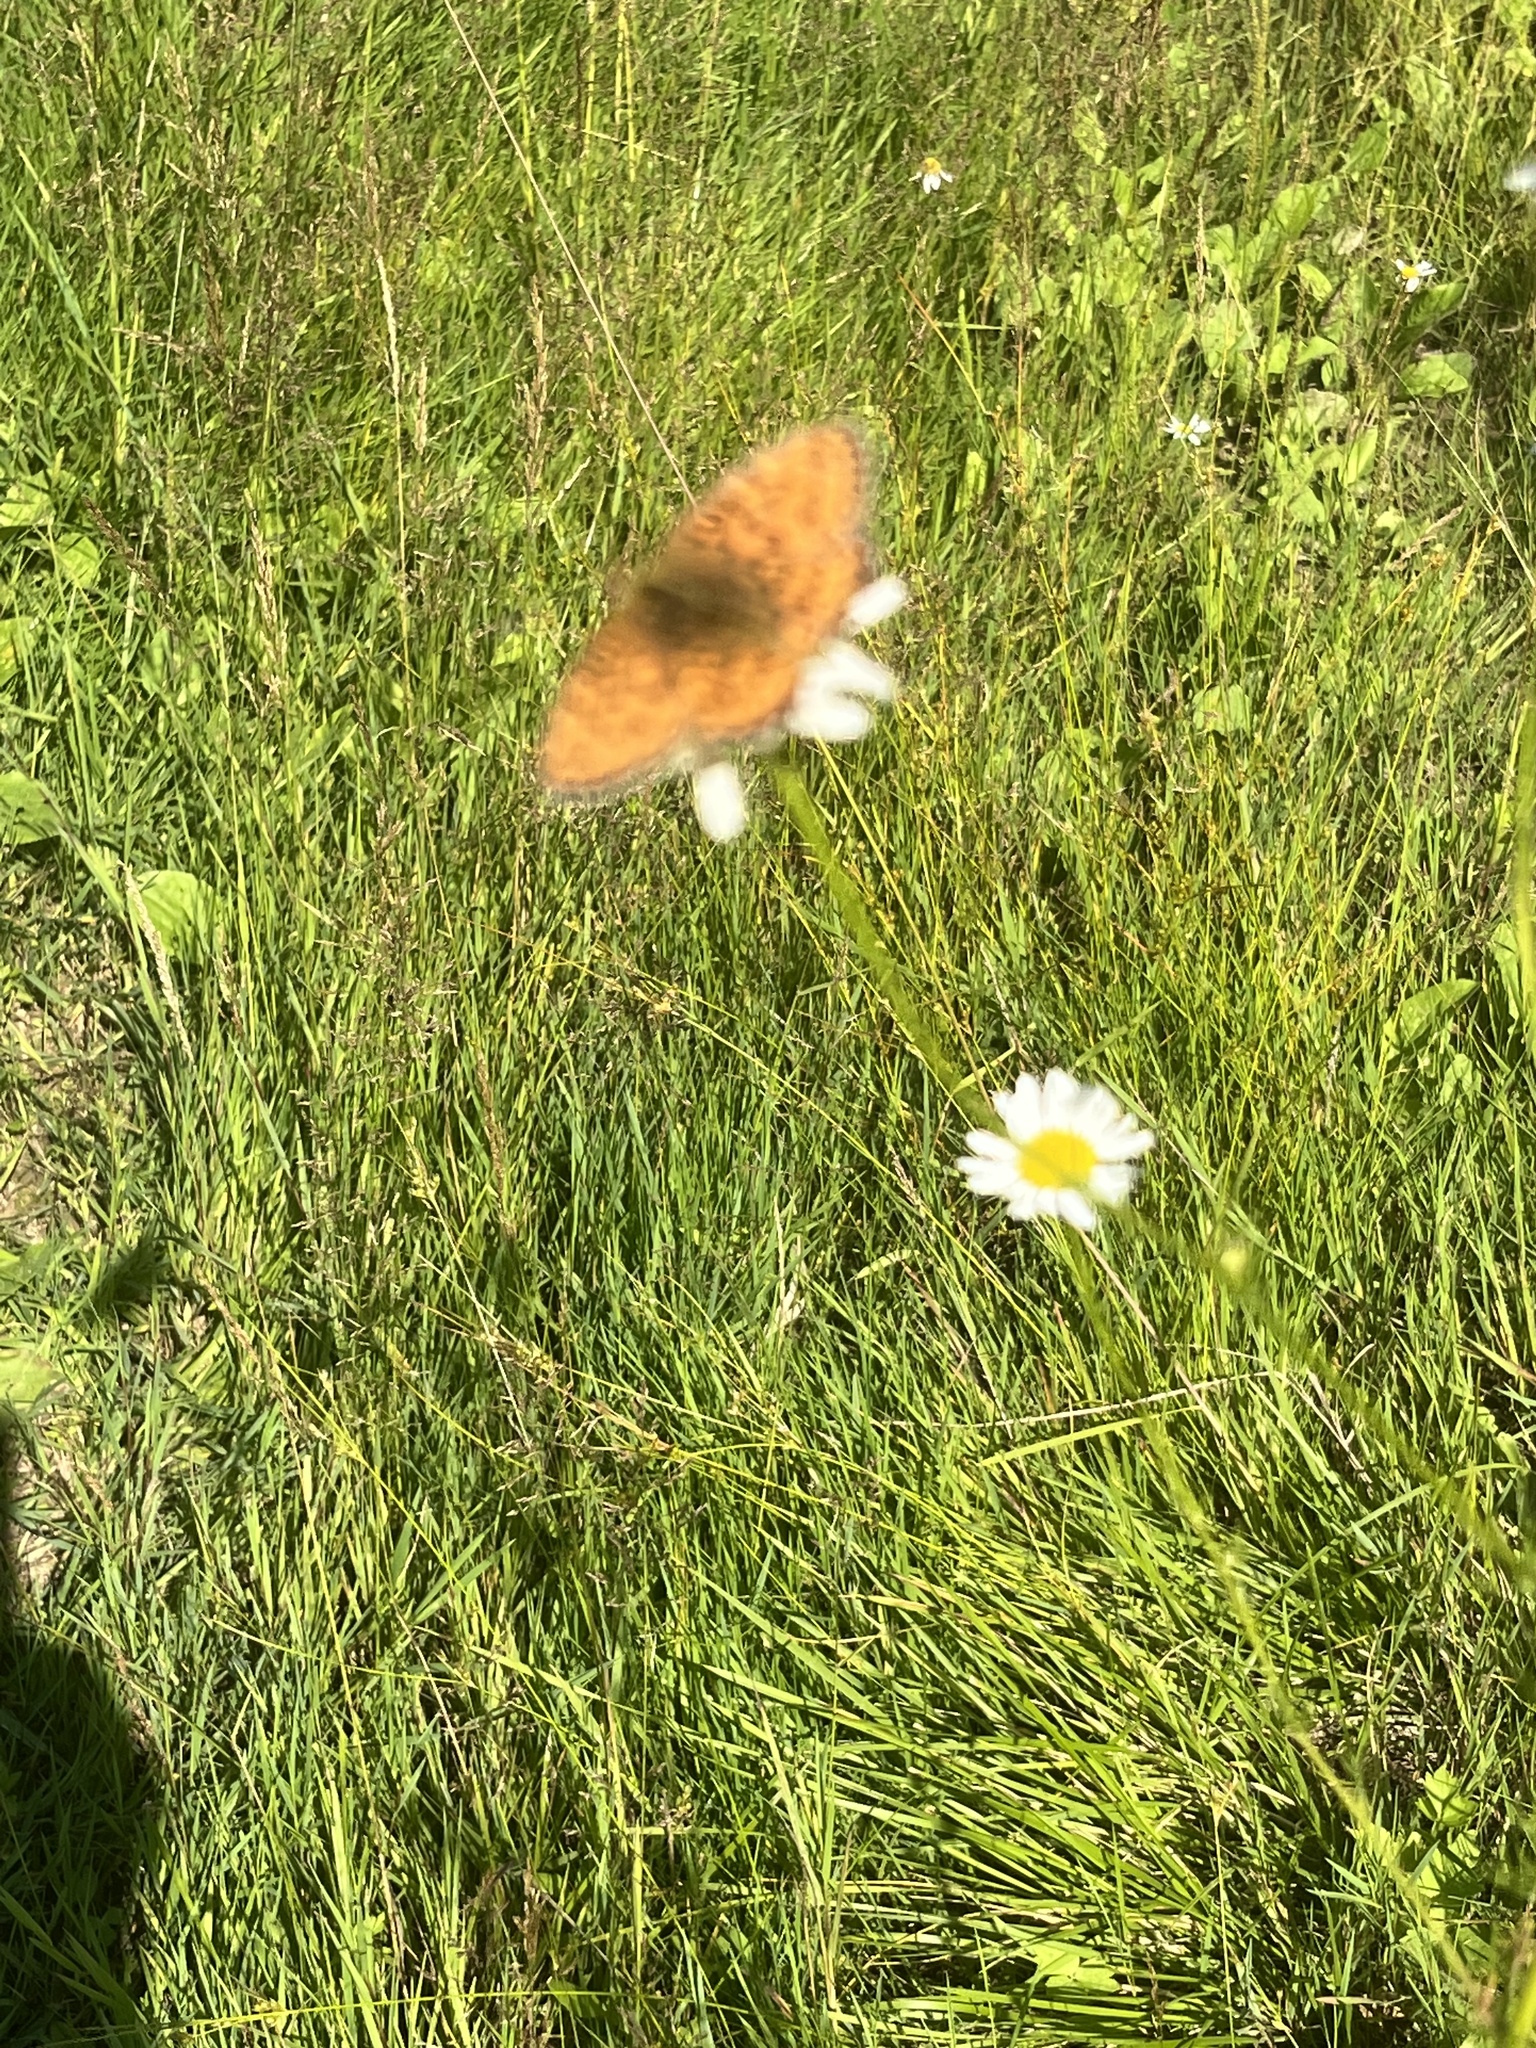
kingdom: Animalia
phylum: Arthropoda
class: Insecta
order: Lepidoptera
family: Nymphalidae
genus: Fabriciana
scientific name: Fabriciana adippe
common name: High brown fritillary
